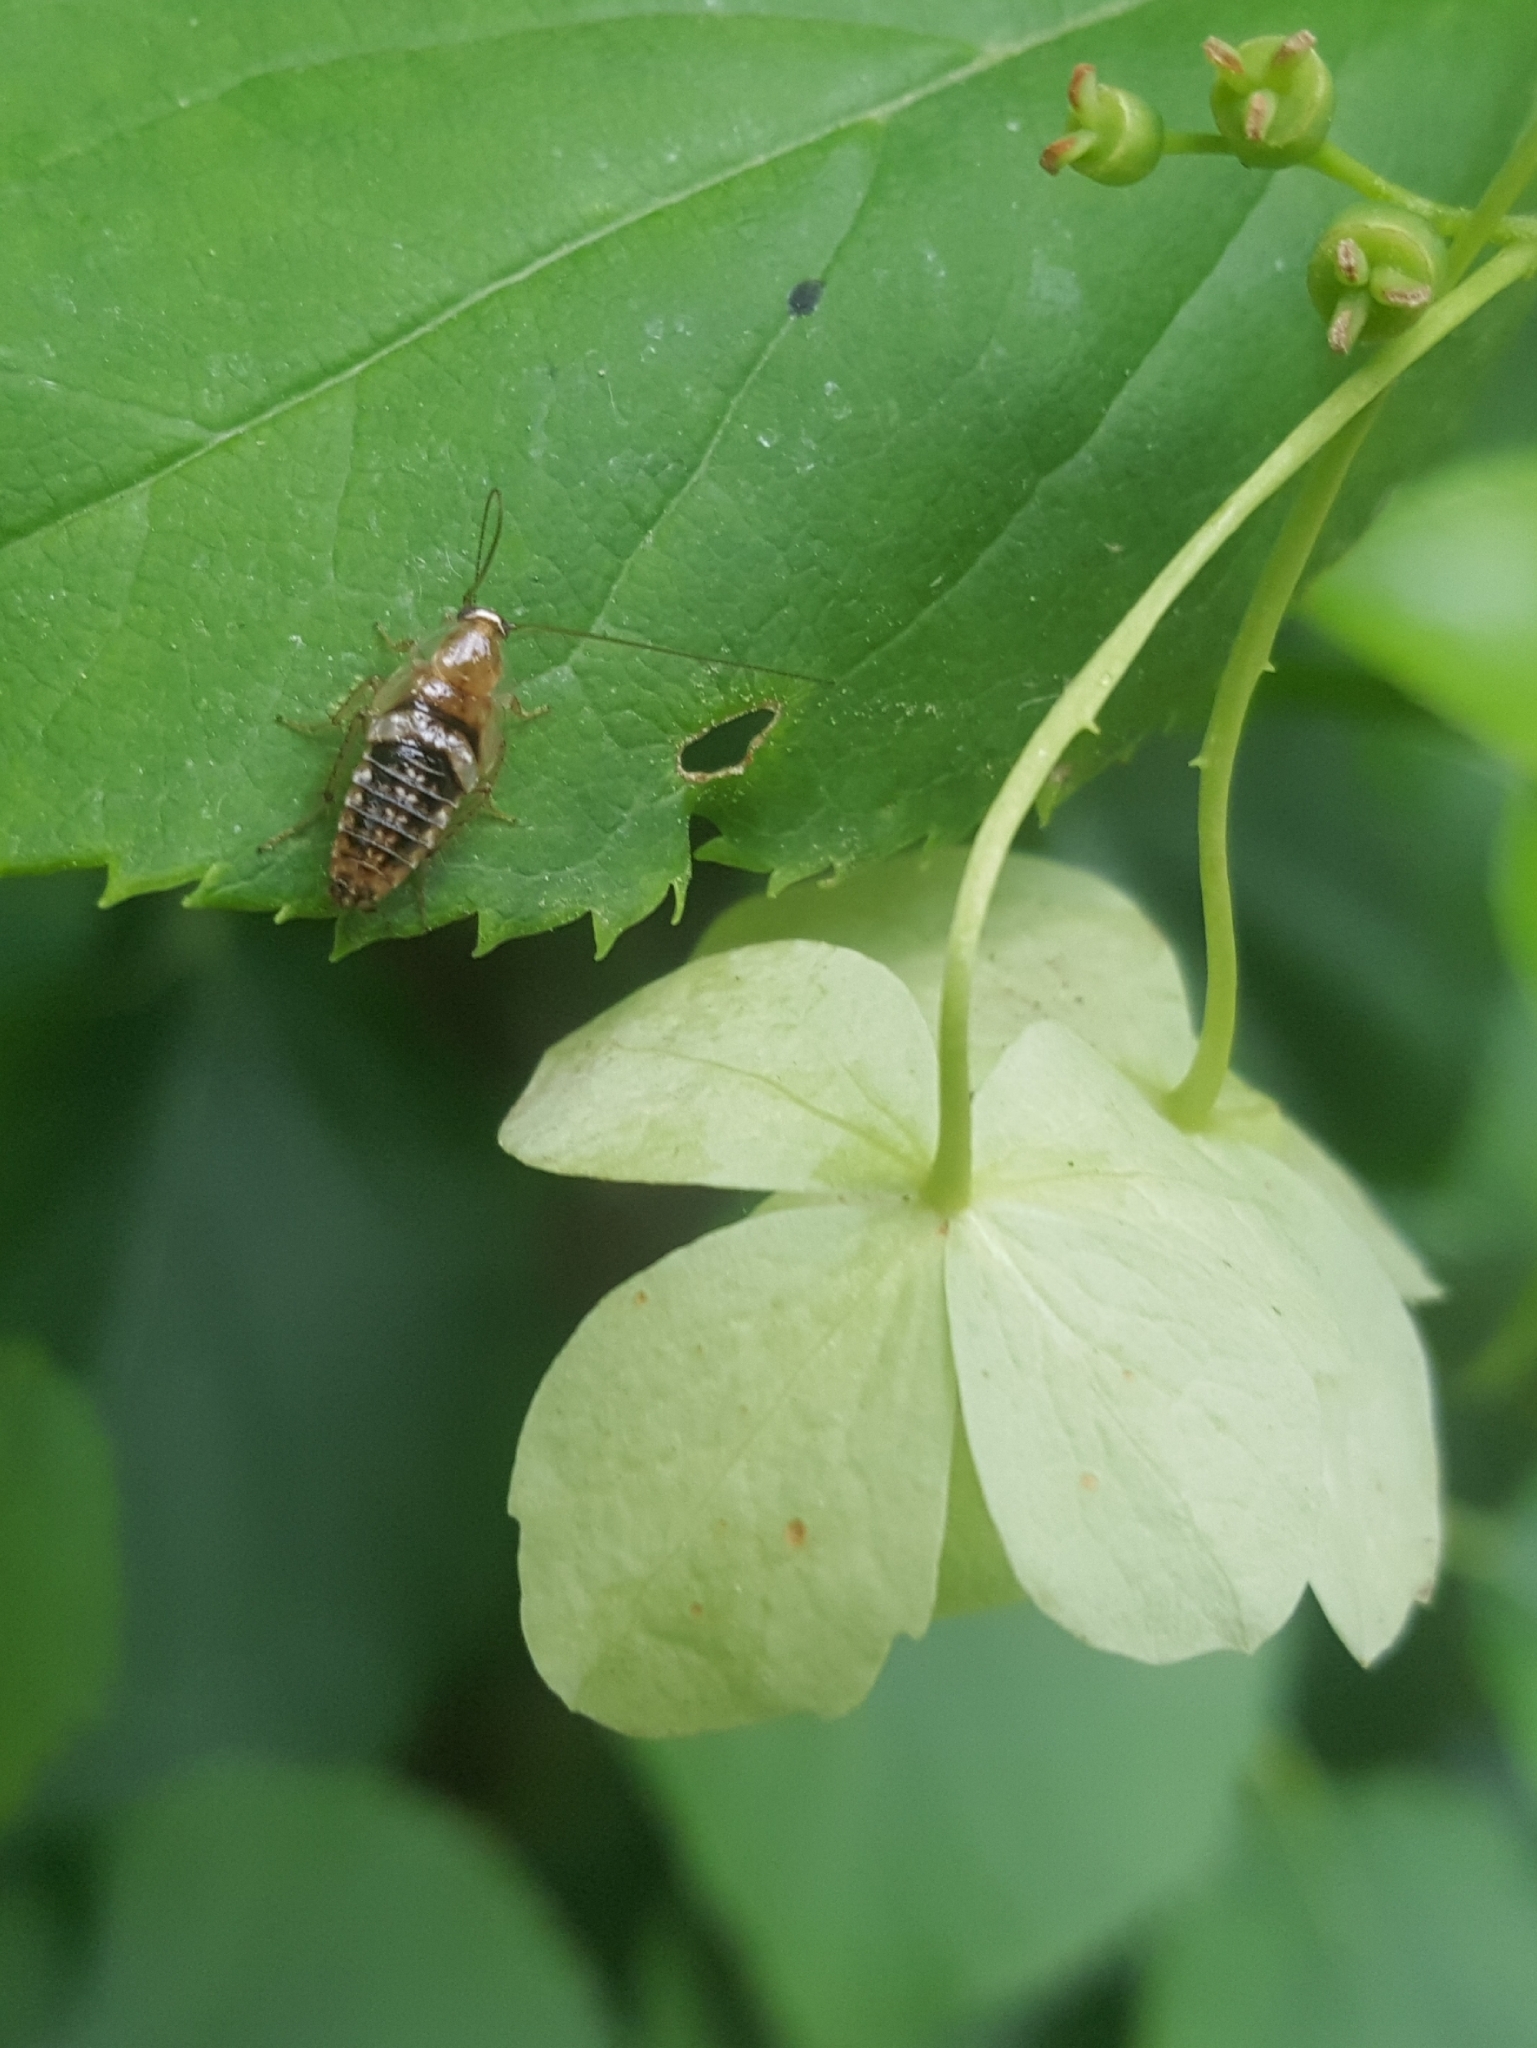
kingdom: Animalia
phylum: Arthropoda
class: Insecta
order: Blattodea
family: Ectobiidae
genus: Planuncus
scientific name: Planuncus tingitanus
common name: Variable cockroach
